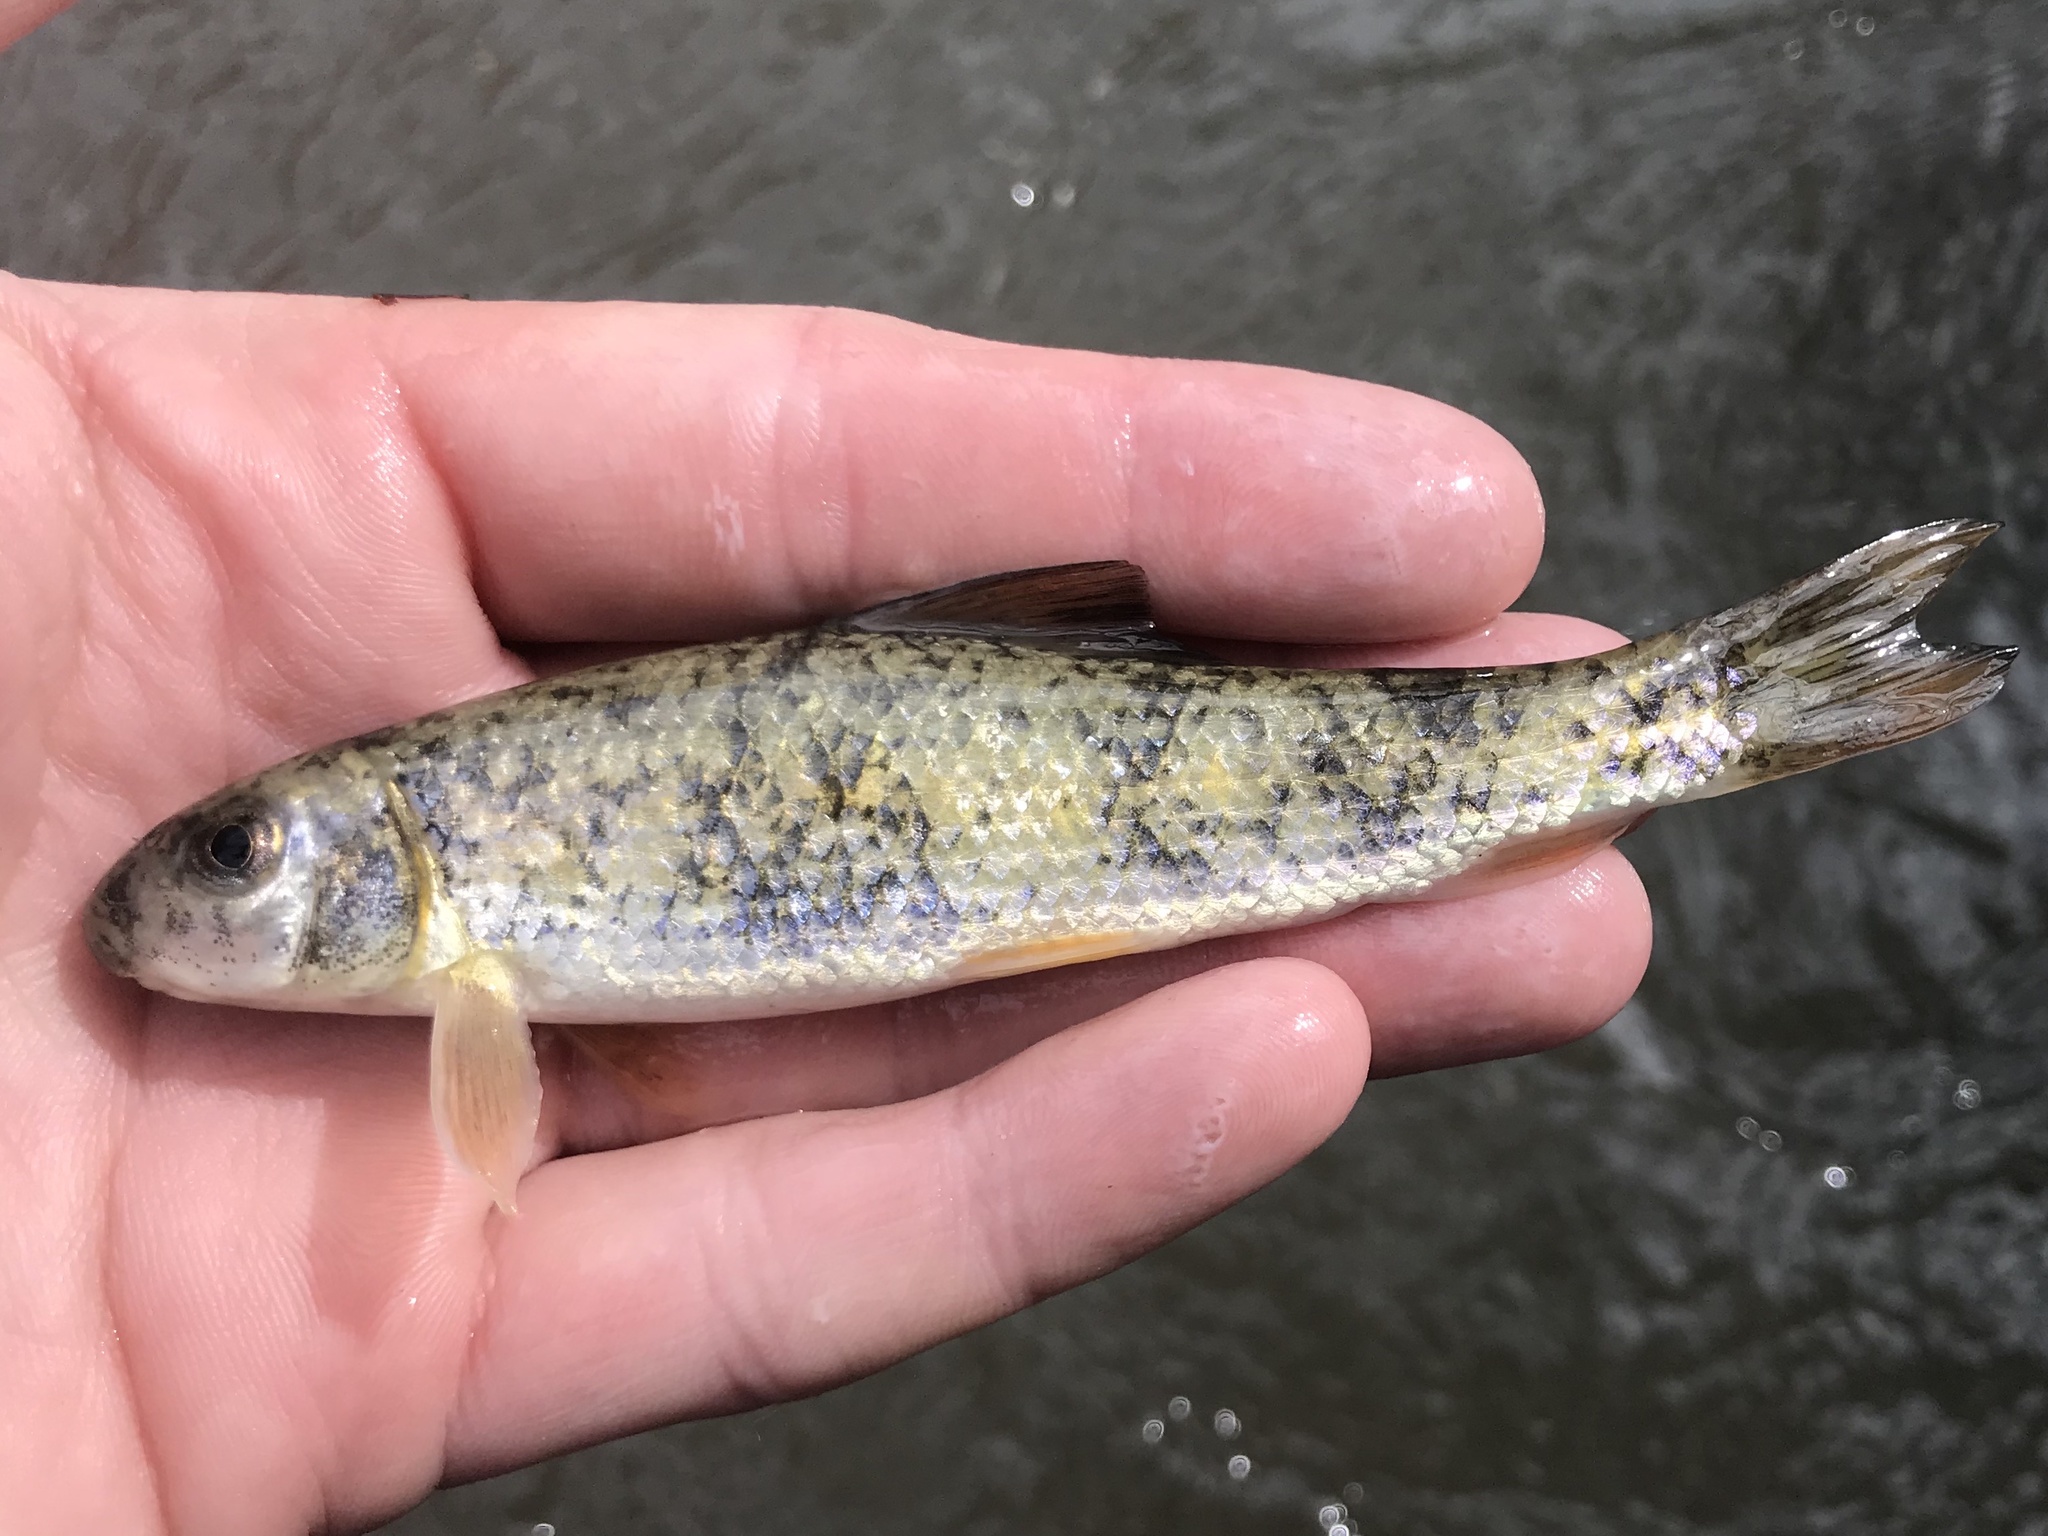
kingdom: Animalia
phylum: Chordata
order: Cypriniformes
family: Catostomidae
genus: Moxostoma
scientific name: Moxostoma congestum
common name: Gray redhorse
